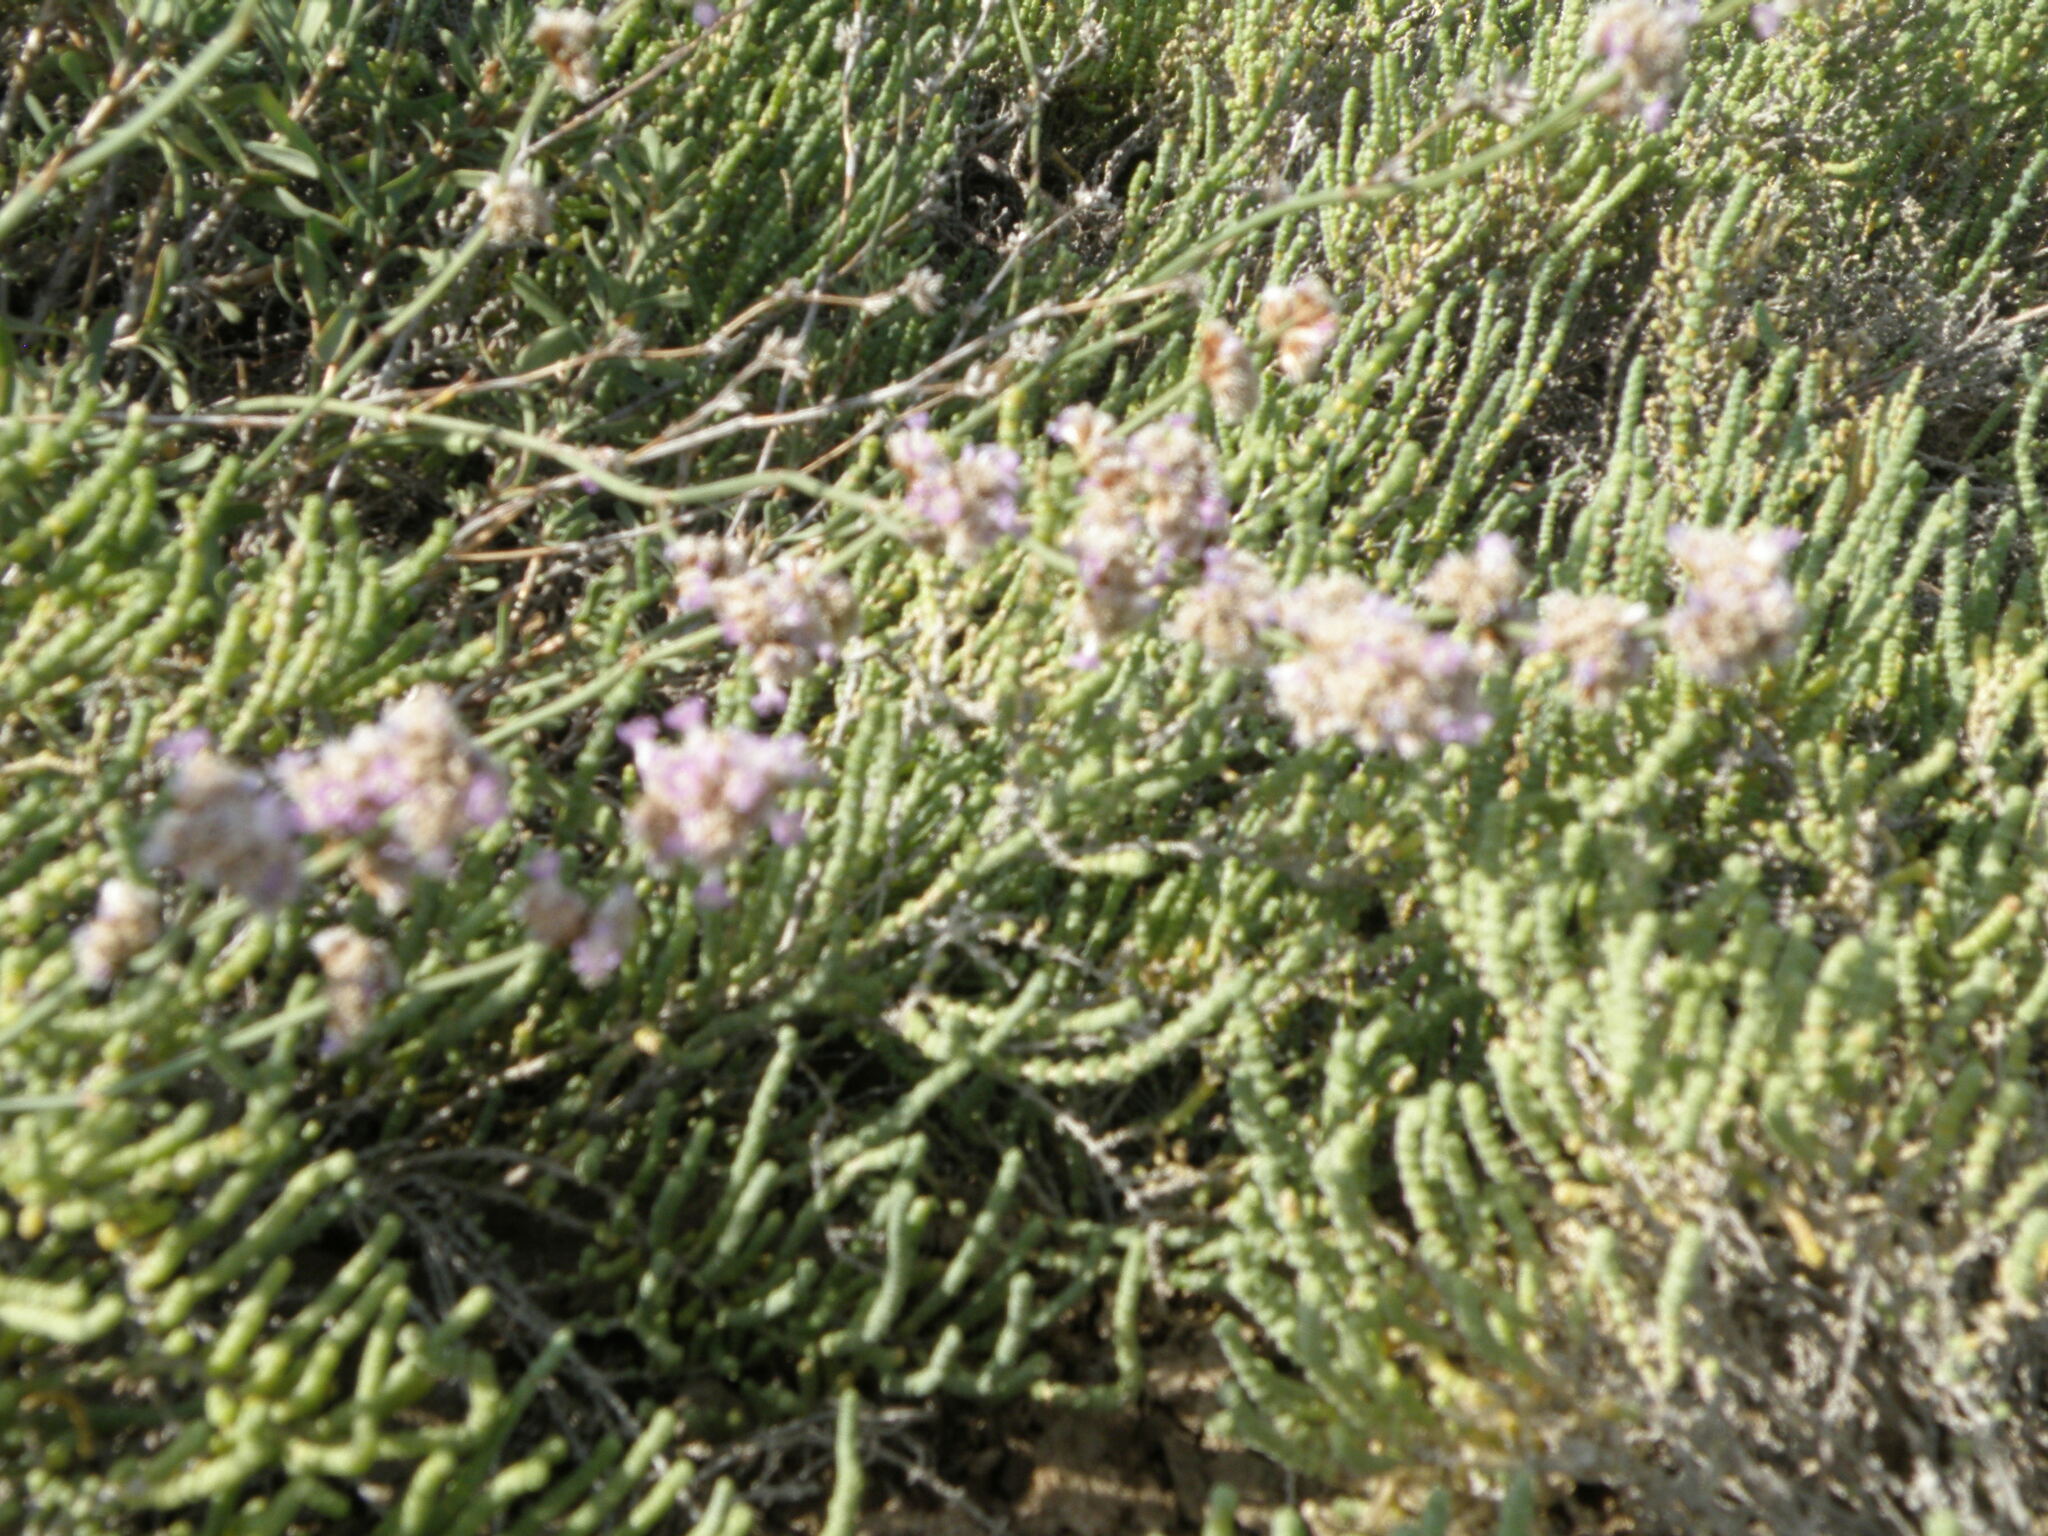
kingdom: Plantae
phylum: Tracheophyta
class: Magnoliopsida
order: Caryophyllales
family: Amaranthaceae
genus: Halocnemum
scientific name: Halocnemum strobilaceum
